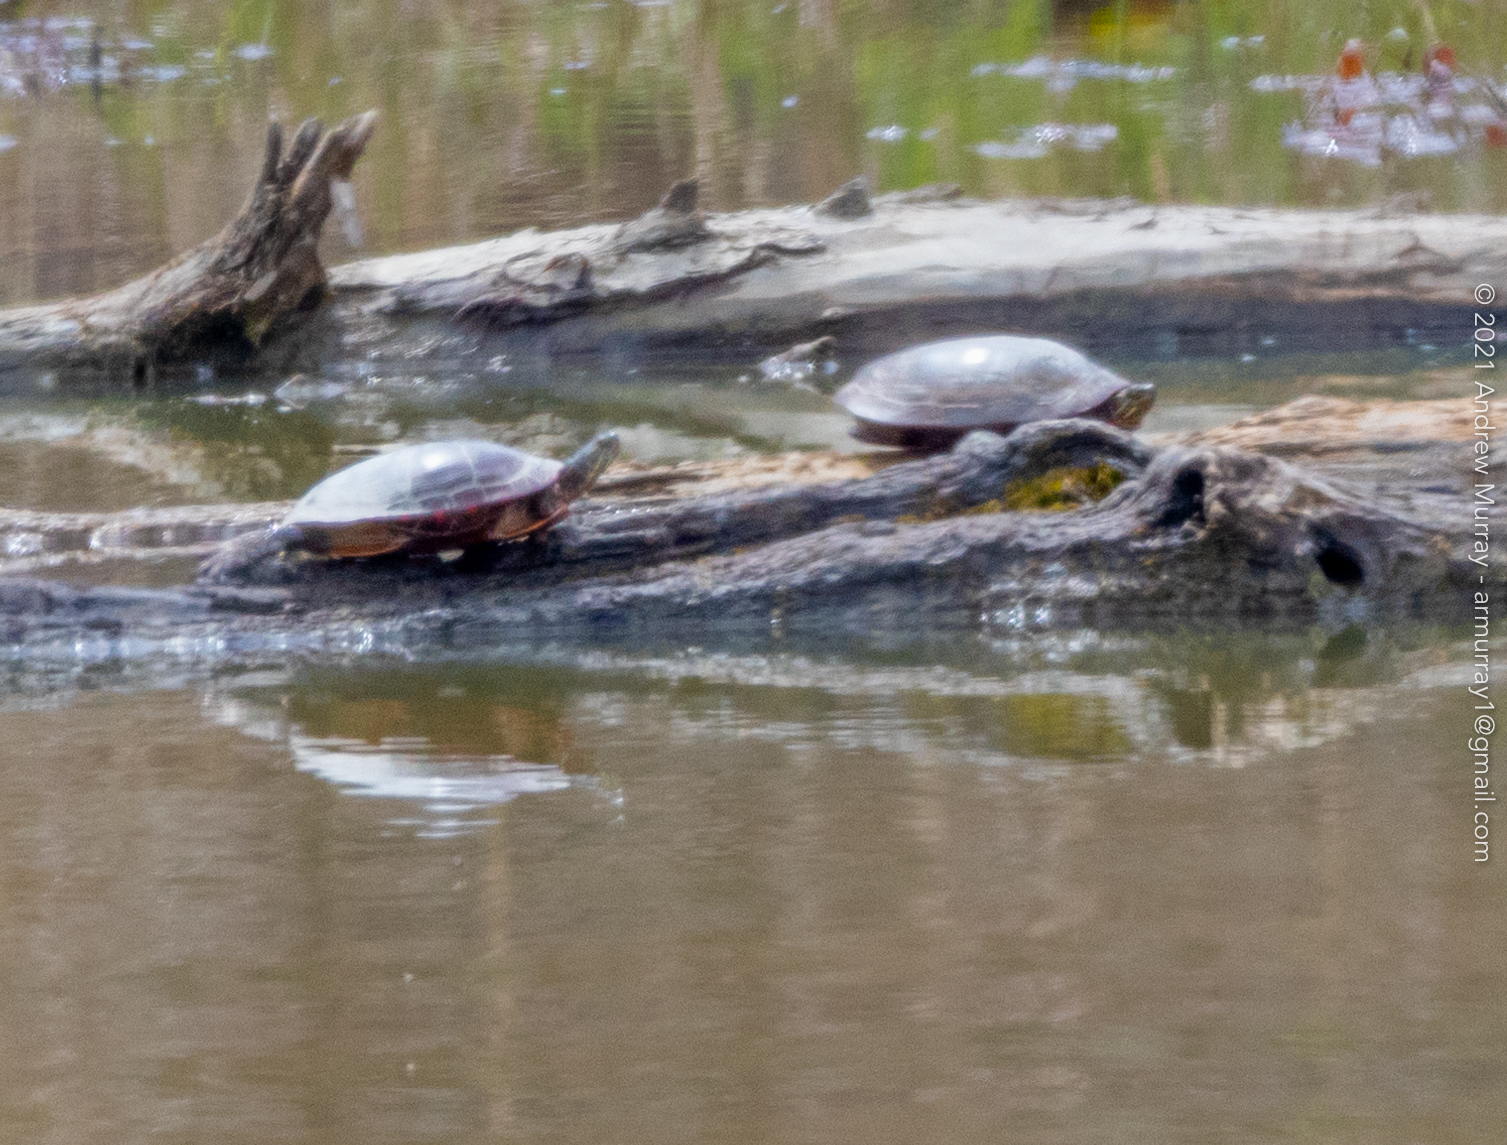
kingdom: Animalia
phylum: Chordata
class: Testudines
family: Emydidae
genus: Chrysemys
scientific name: Chrysemys picta
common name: Painted turtle
